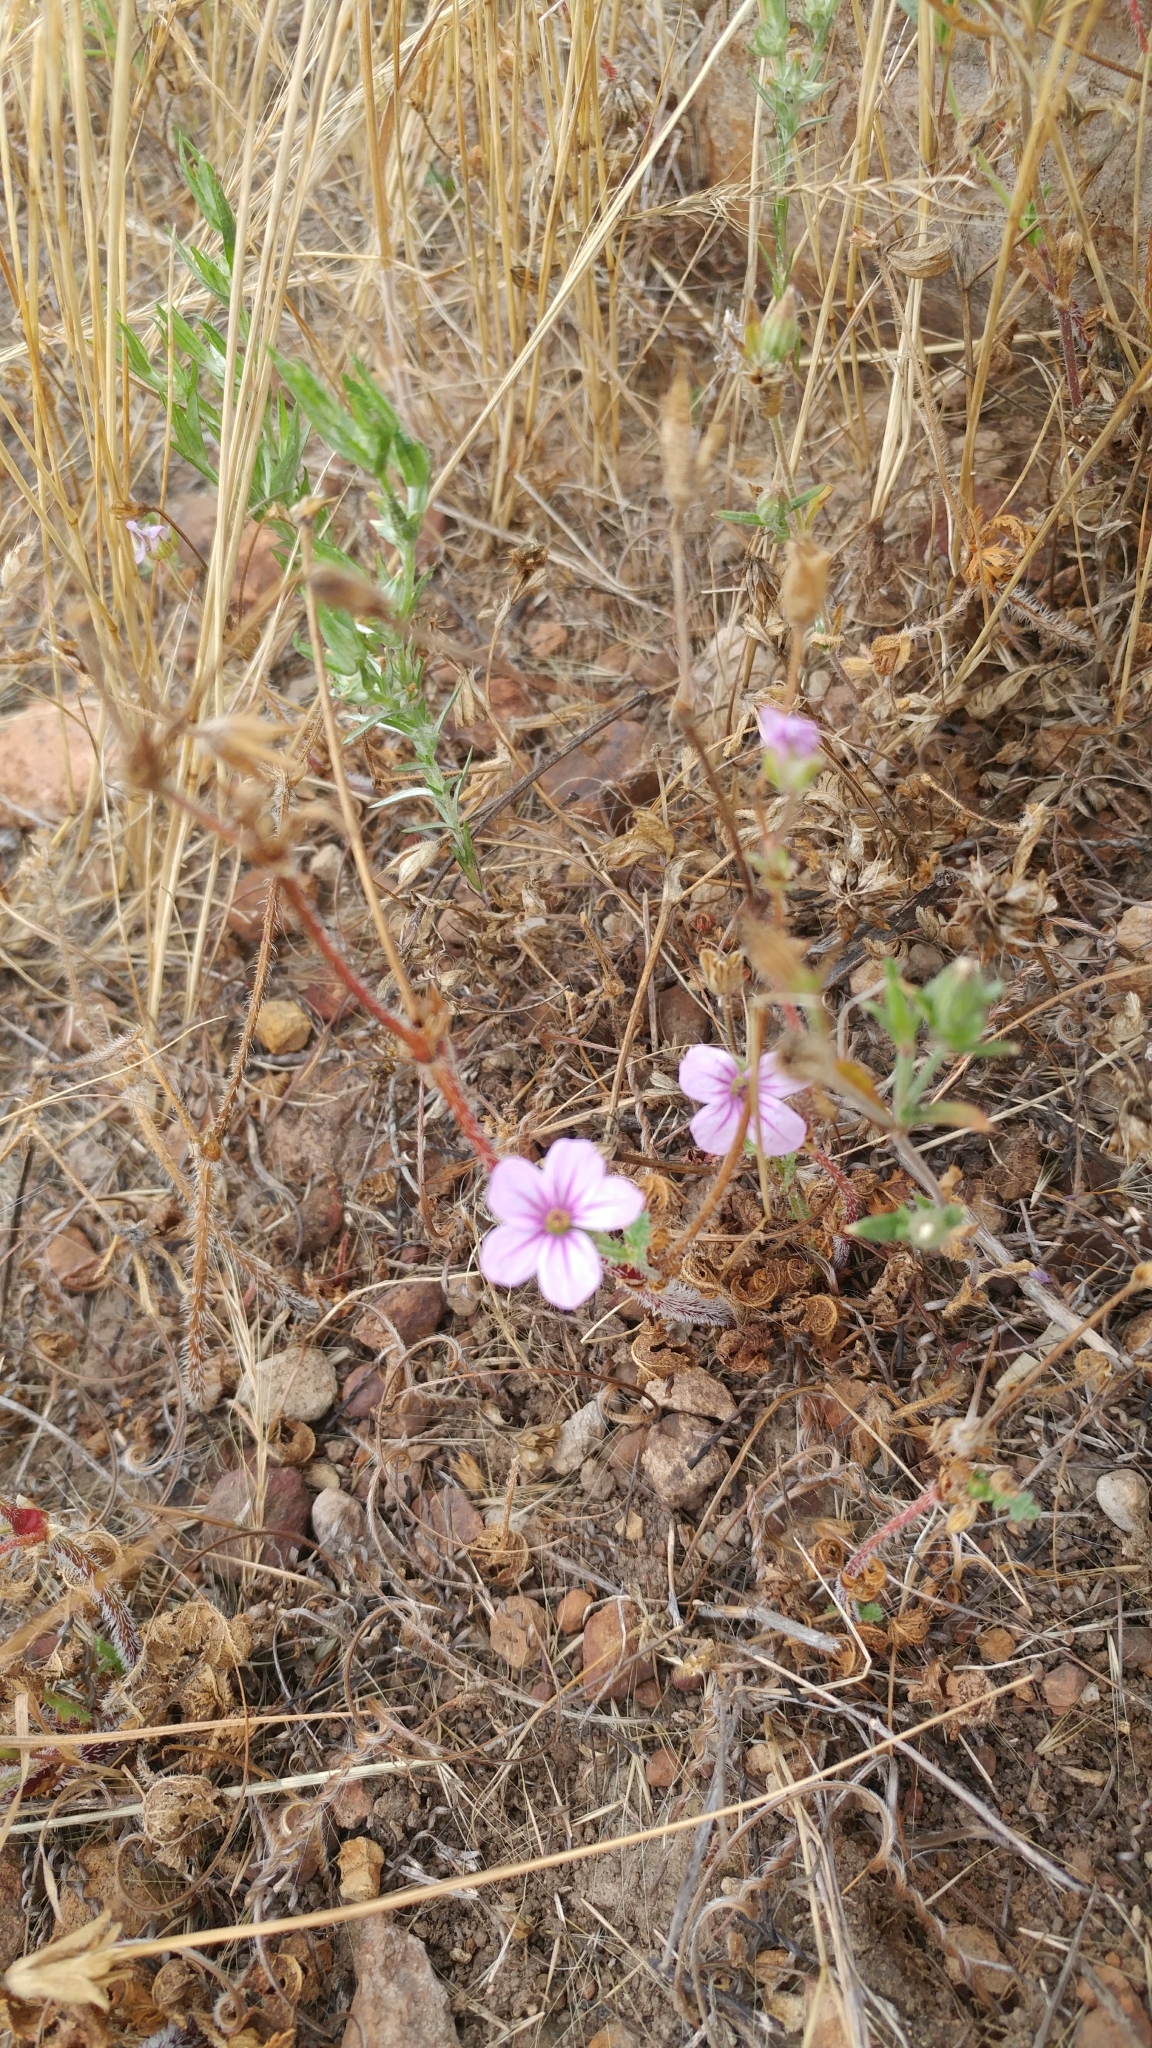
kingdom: Plantae
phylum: Tracheophyta
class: Magnoliopsida
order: Geraniales
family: Geraniaceae
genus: Erodium
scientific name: Erodium botrys
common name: Mediterranean stork's-bill
